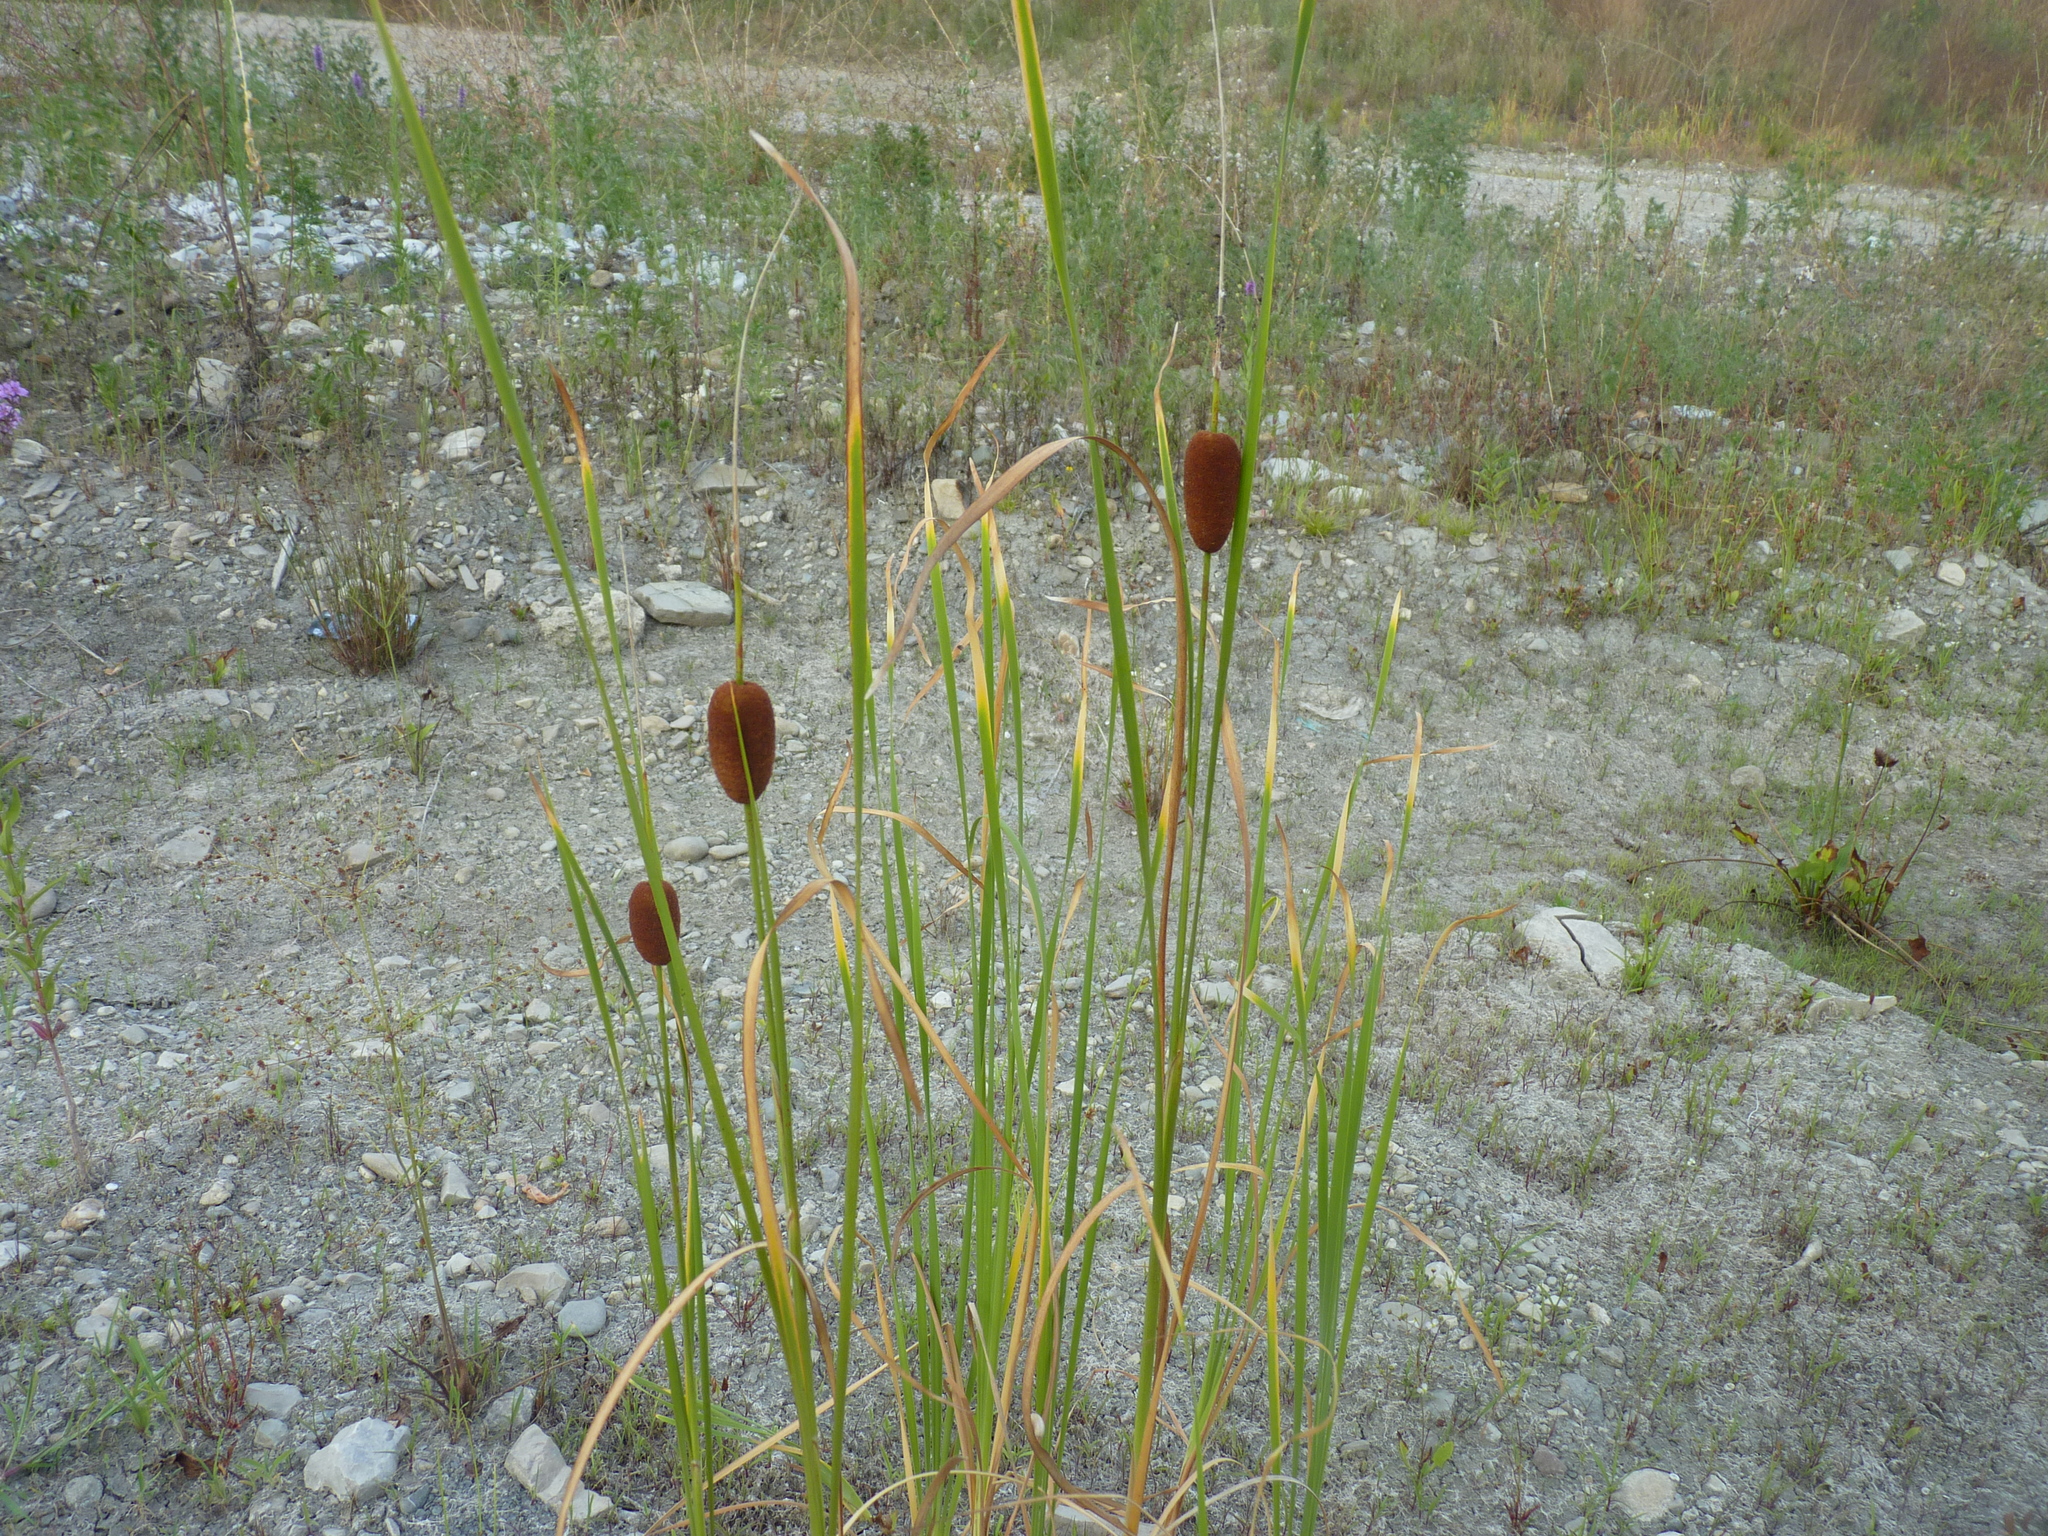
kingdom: Plantae
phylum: Tracheophyta
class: Liliopsida
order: Poales
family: Typhaceae
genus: Typha
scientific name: Typha laxmannii
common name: Laxman’s bulrush
